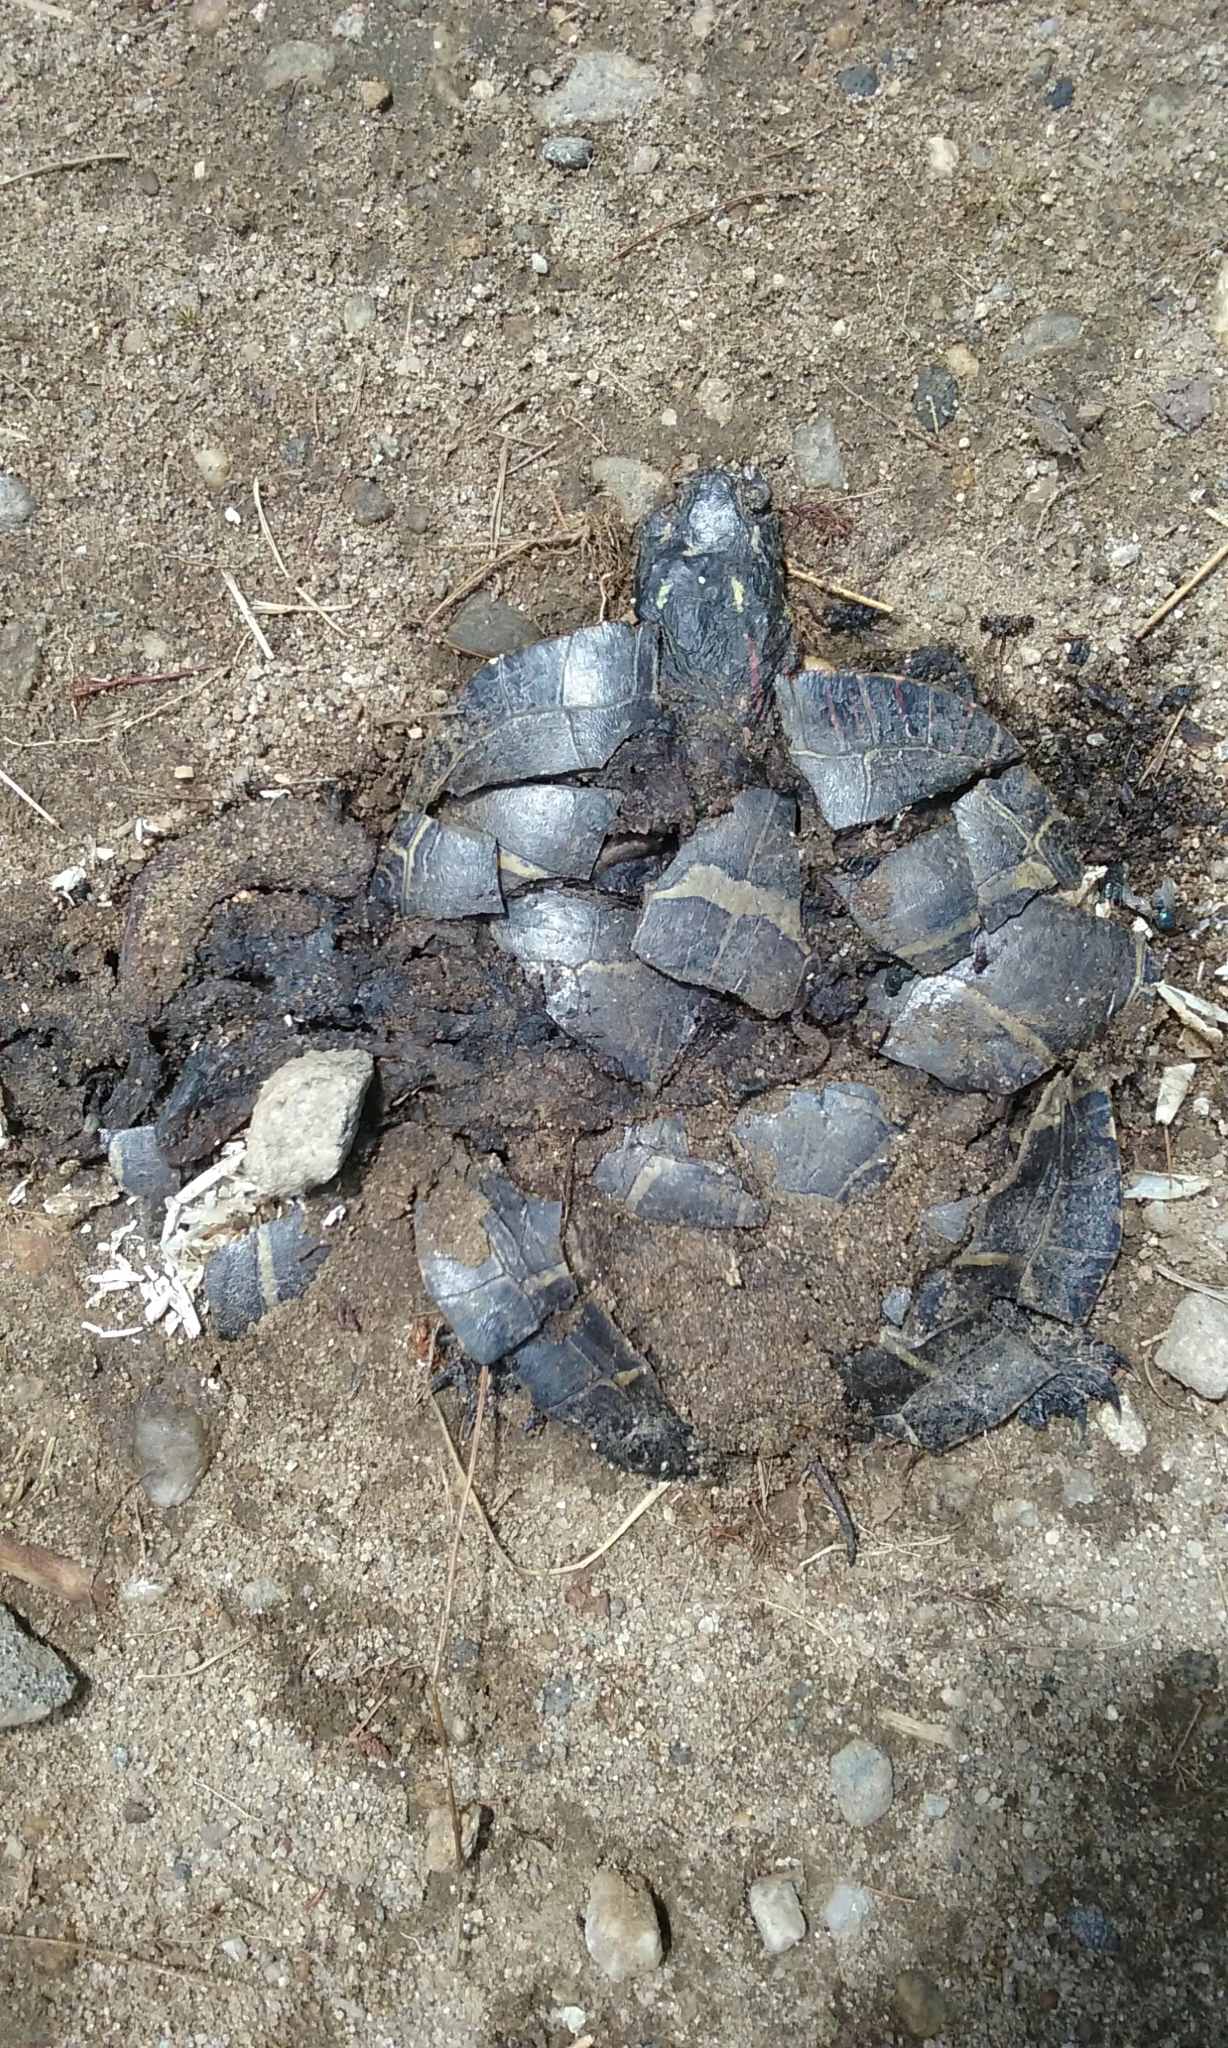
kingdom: Animalia
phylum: Chordata
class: Testudines
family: Emydidae
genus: Chrysemys
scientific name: Chrysemys picta
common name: Painted turtle
